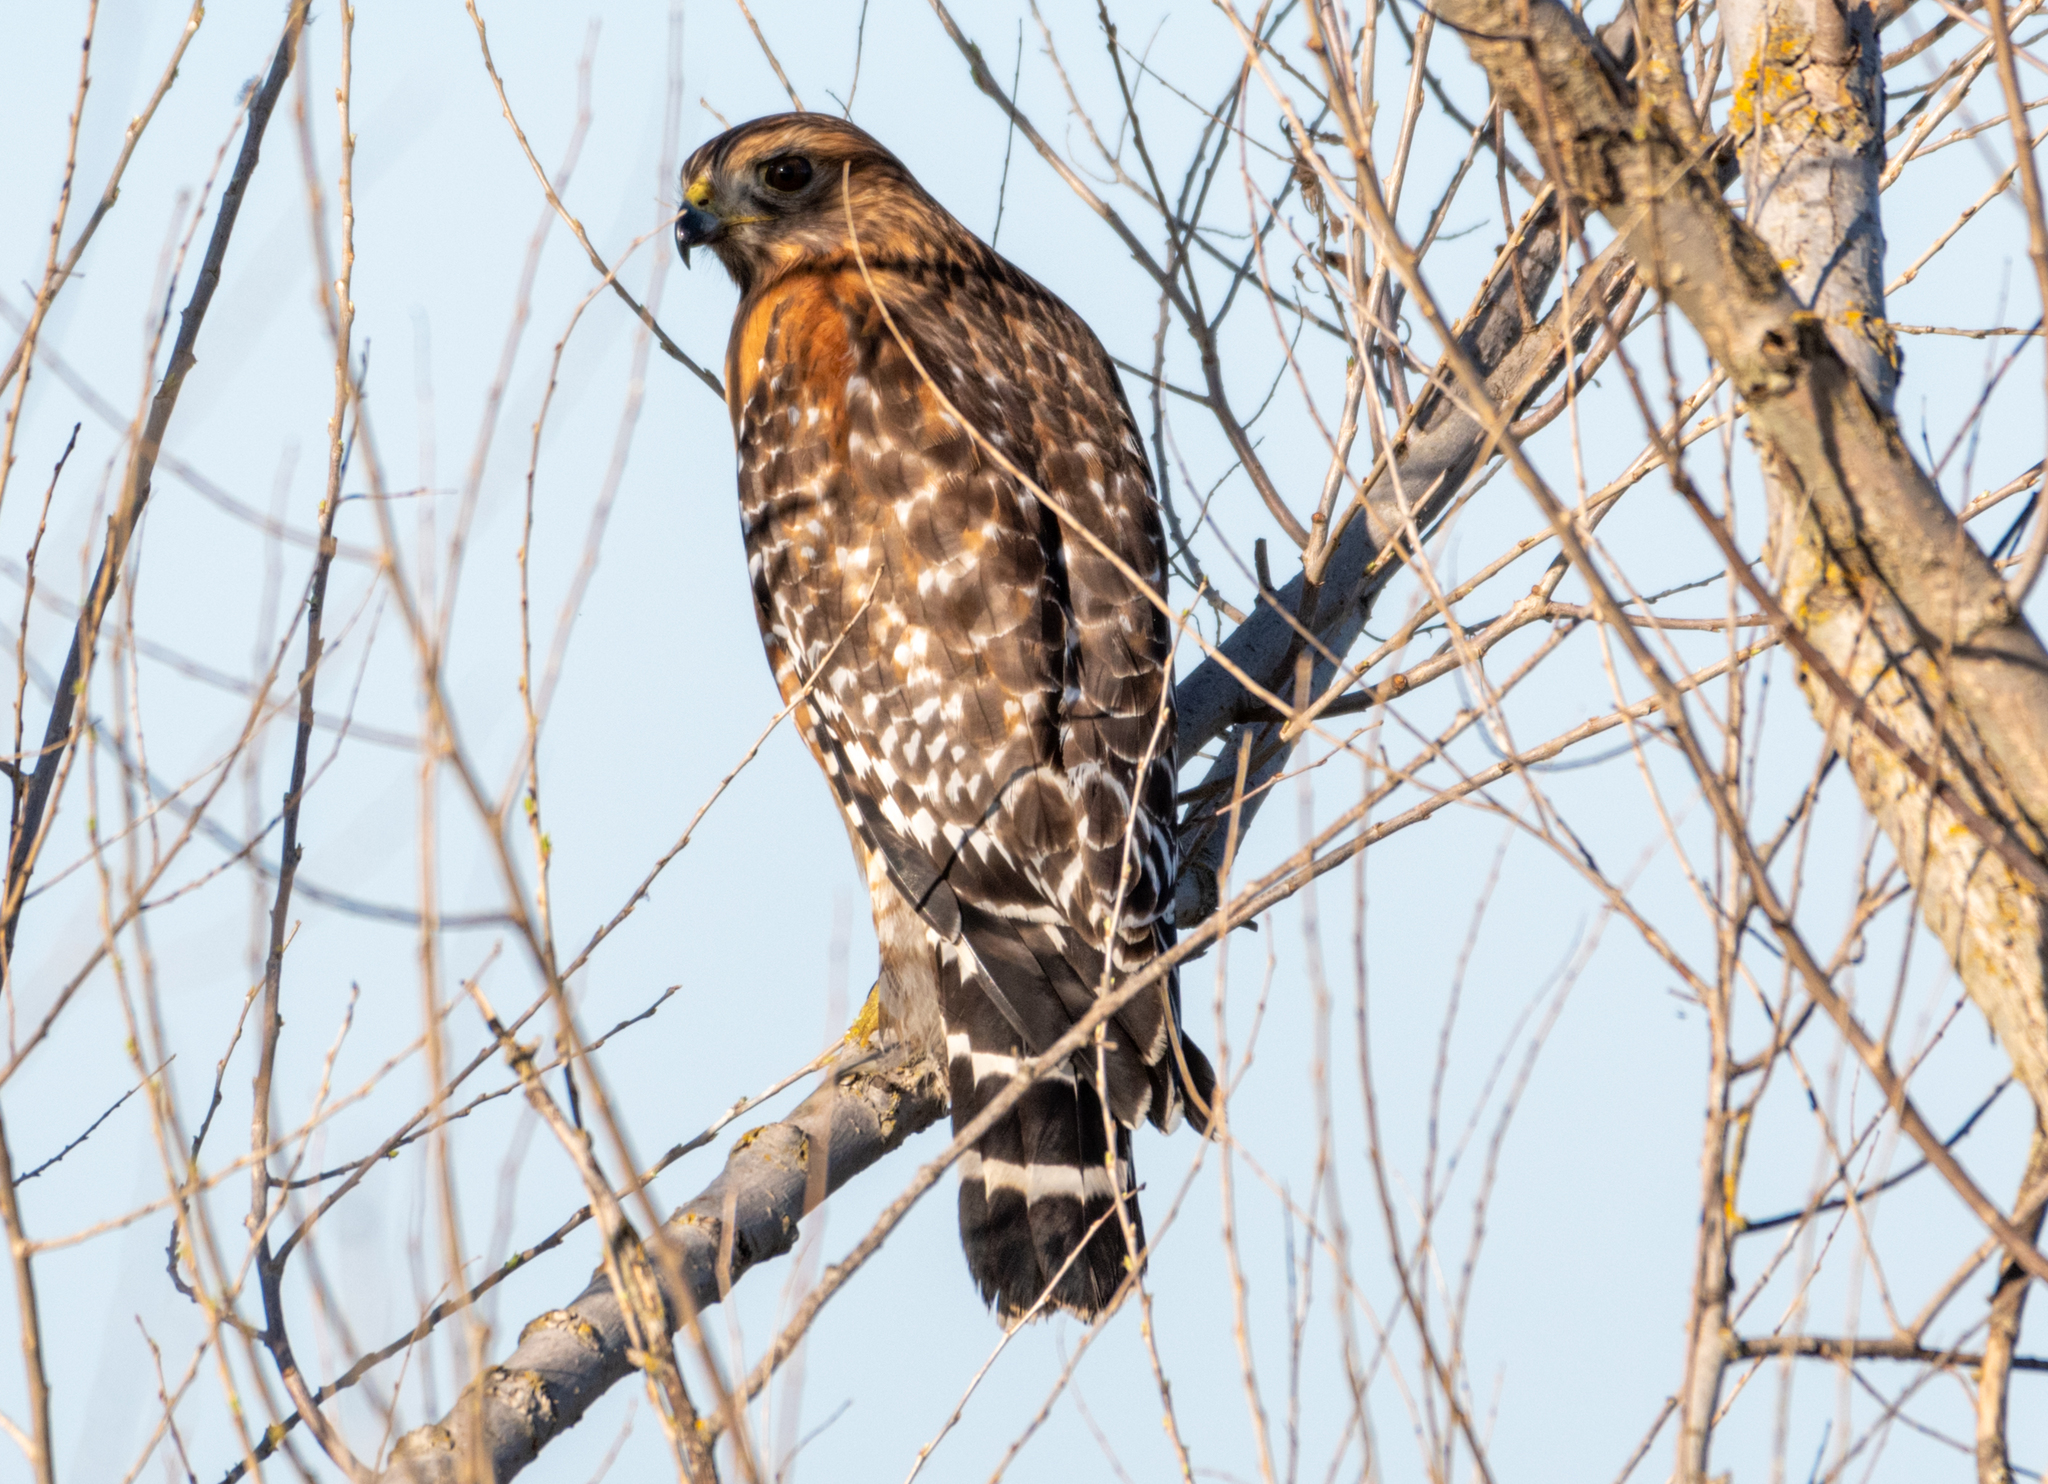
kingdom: Animalia
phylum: Chordata
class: Aves
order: Accipitriformes
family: Accipitridae
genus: Buteo
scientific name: Buteo lineatus
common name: Red-shouldered hawk
